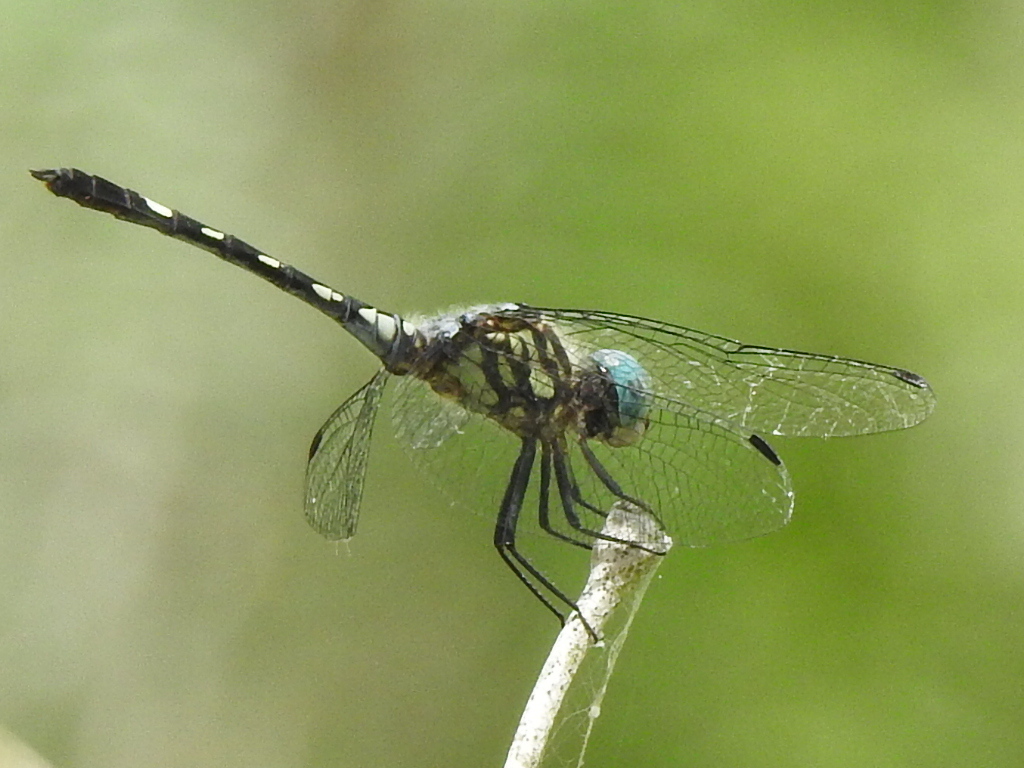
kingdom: Animalia
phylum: Arthropoda
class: Insecta
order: Odonata
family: Libellulidae
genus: Micrathyria
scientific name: Micrathyria hagenii
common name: Thornbush dasher
